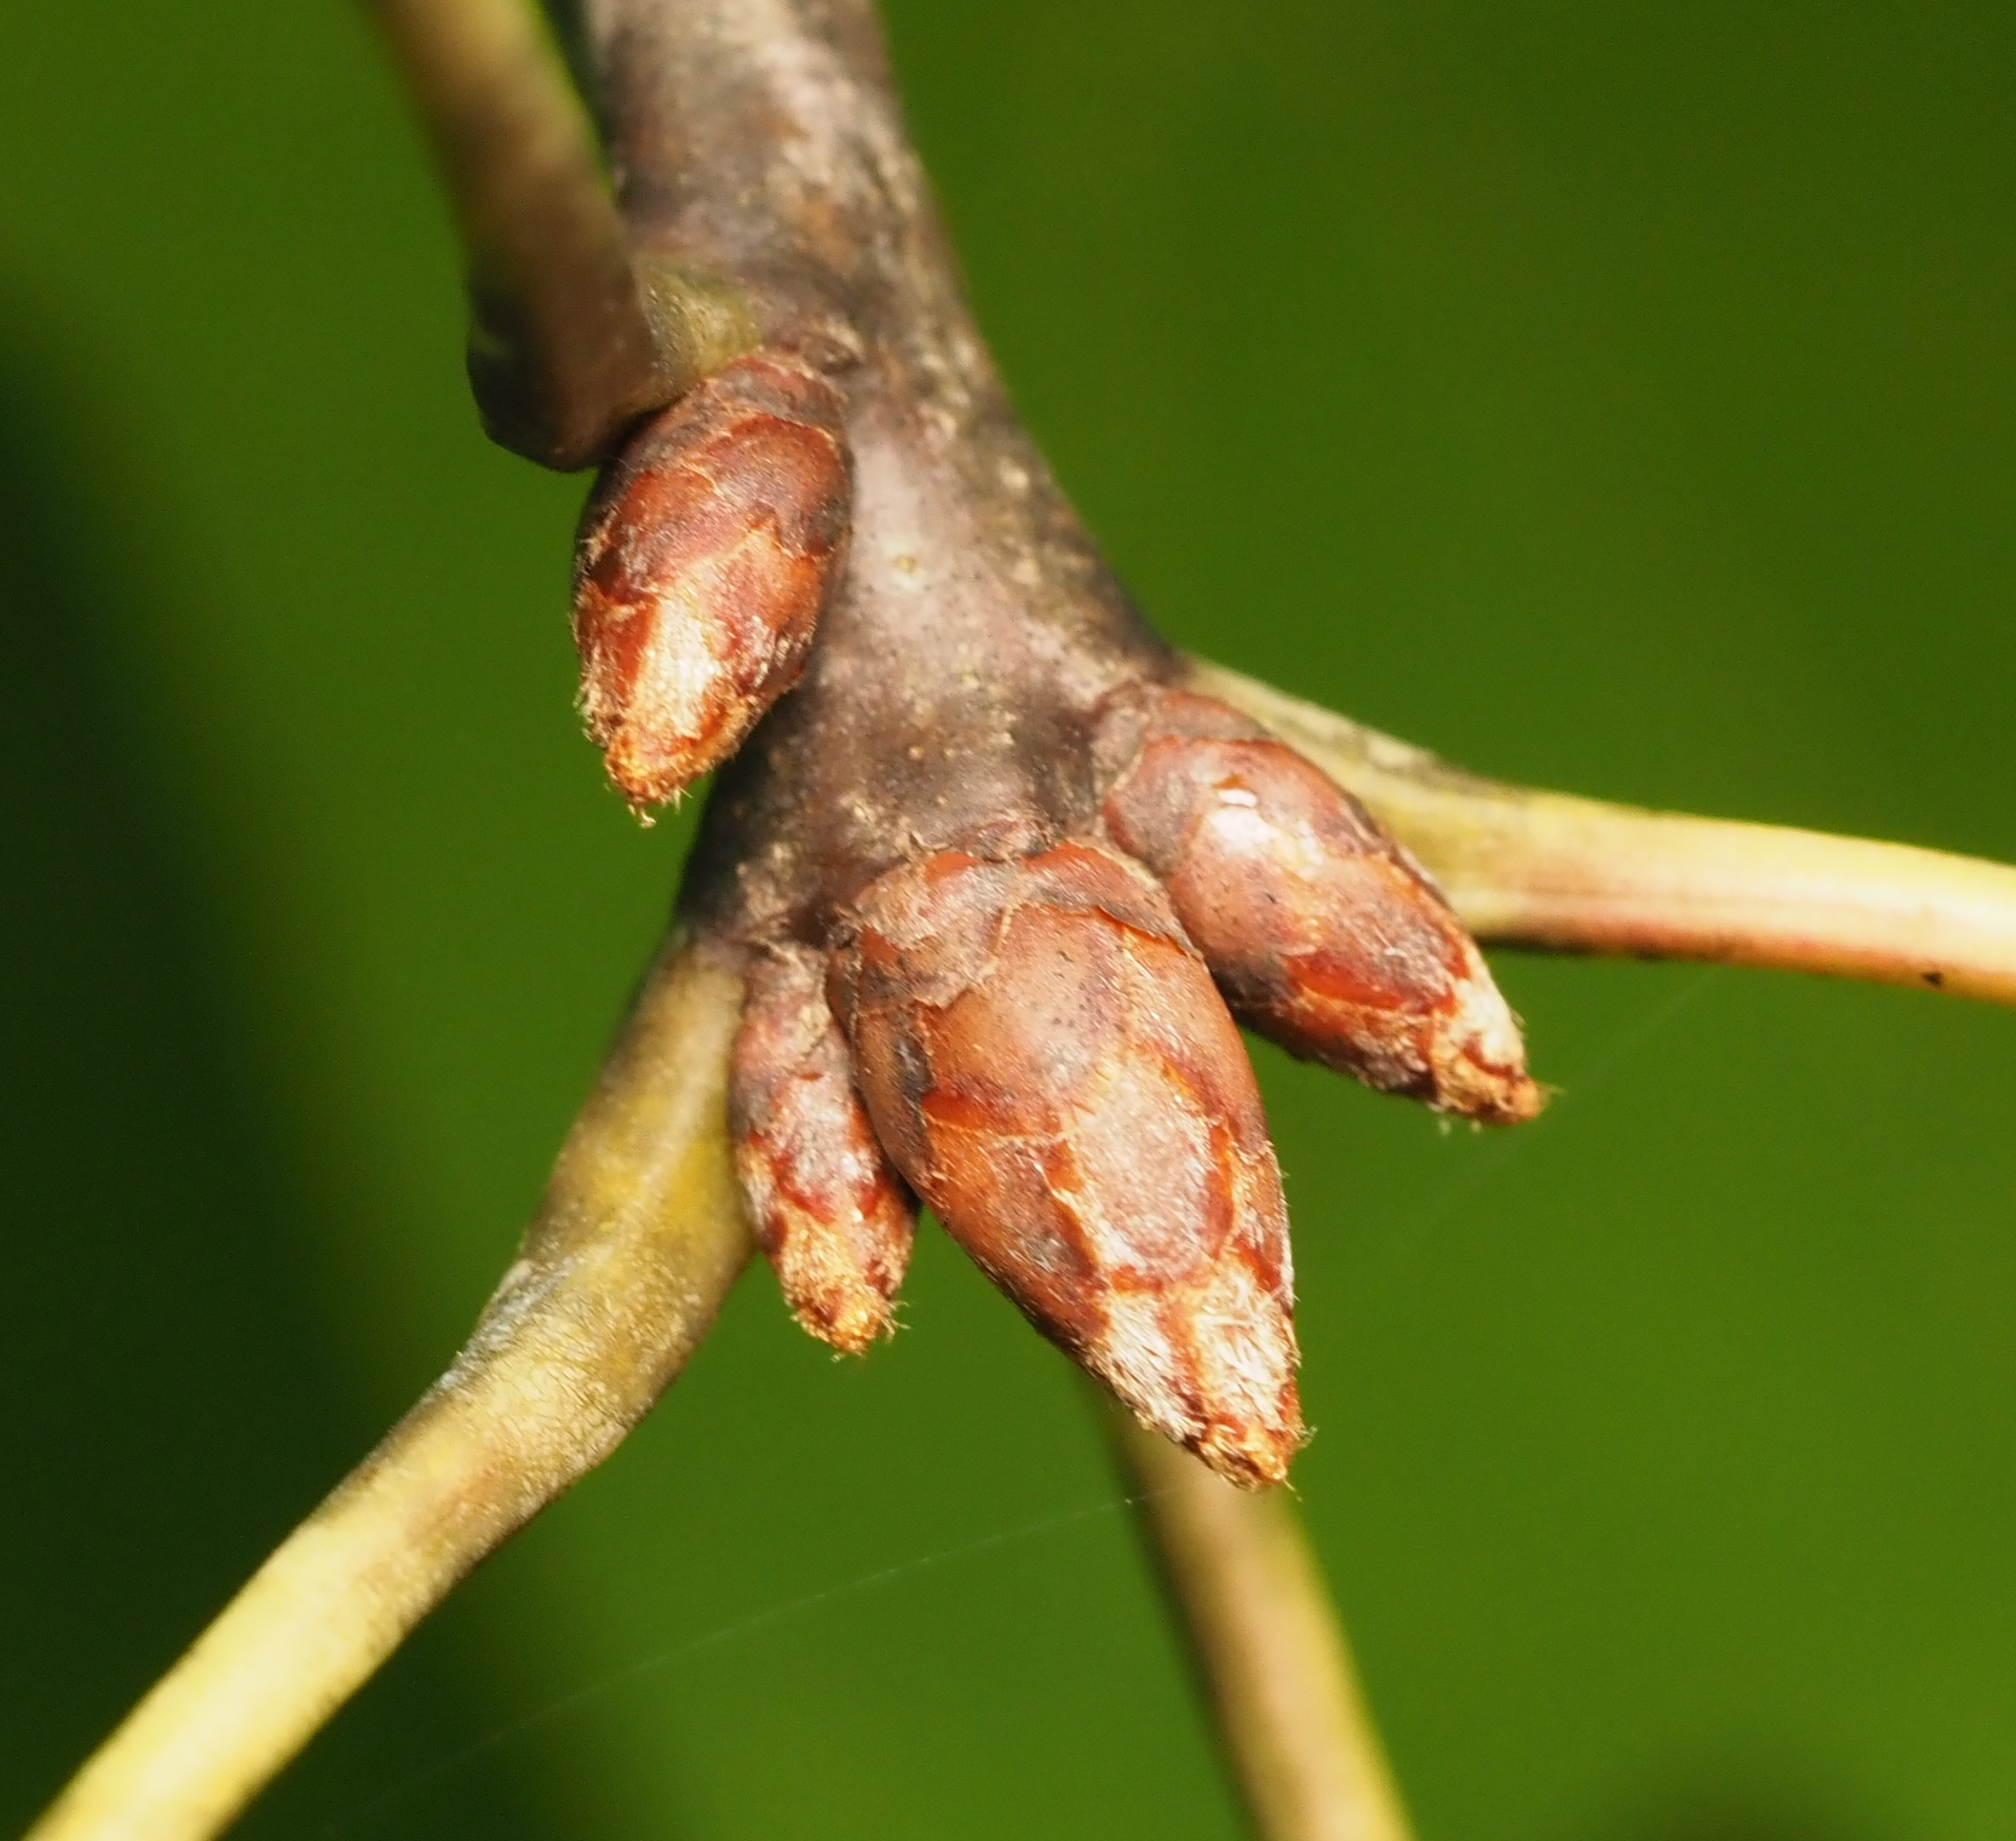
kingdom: Plantae
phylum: Tracheophyta
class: Magnoliopsida
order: Fagales
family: Fagaceae
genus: Quercus
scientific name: Quercus rubra
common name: Red oak
